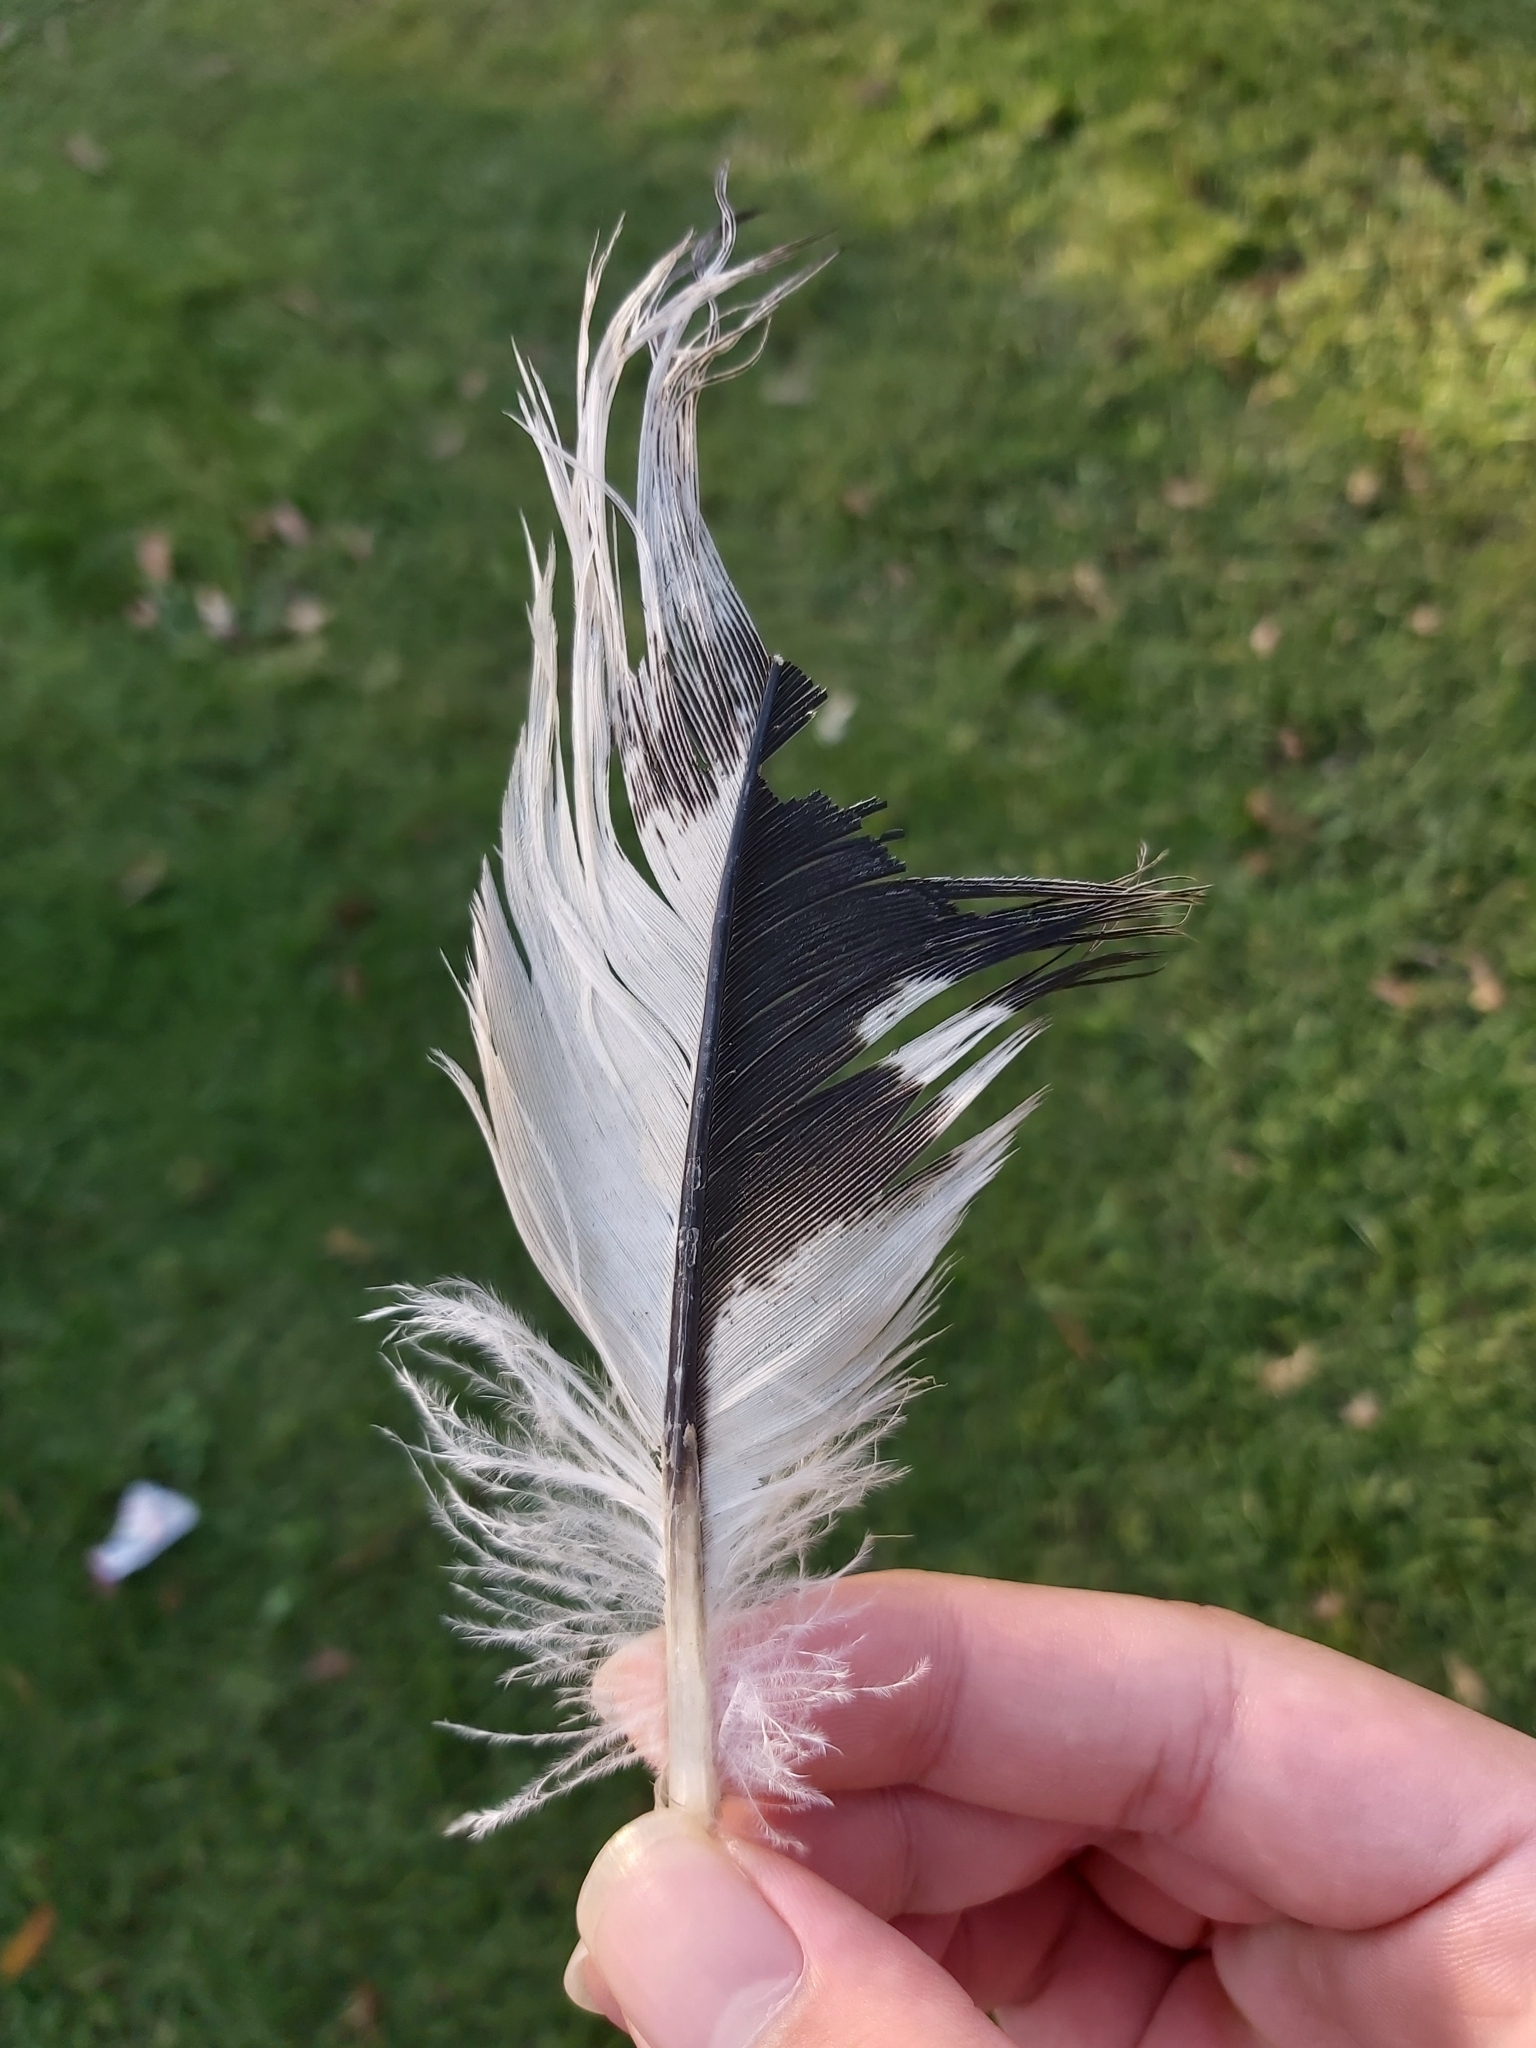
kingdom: Animalia
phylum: Chordata
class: Aves
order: Pelecaniformes
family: Threskiornithidae
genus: Threskiornis
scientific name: Threskiornis molucca
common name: Australian white ibis
